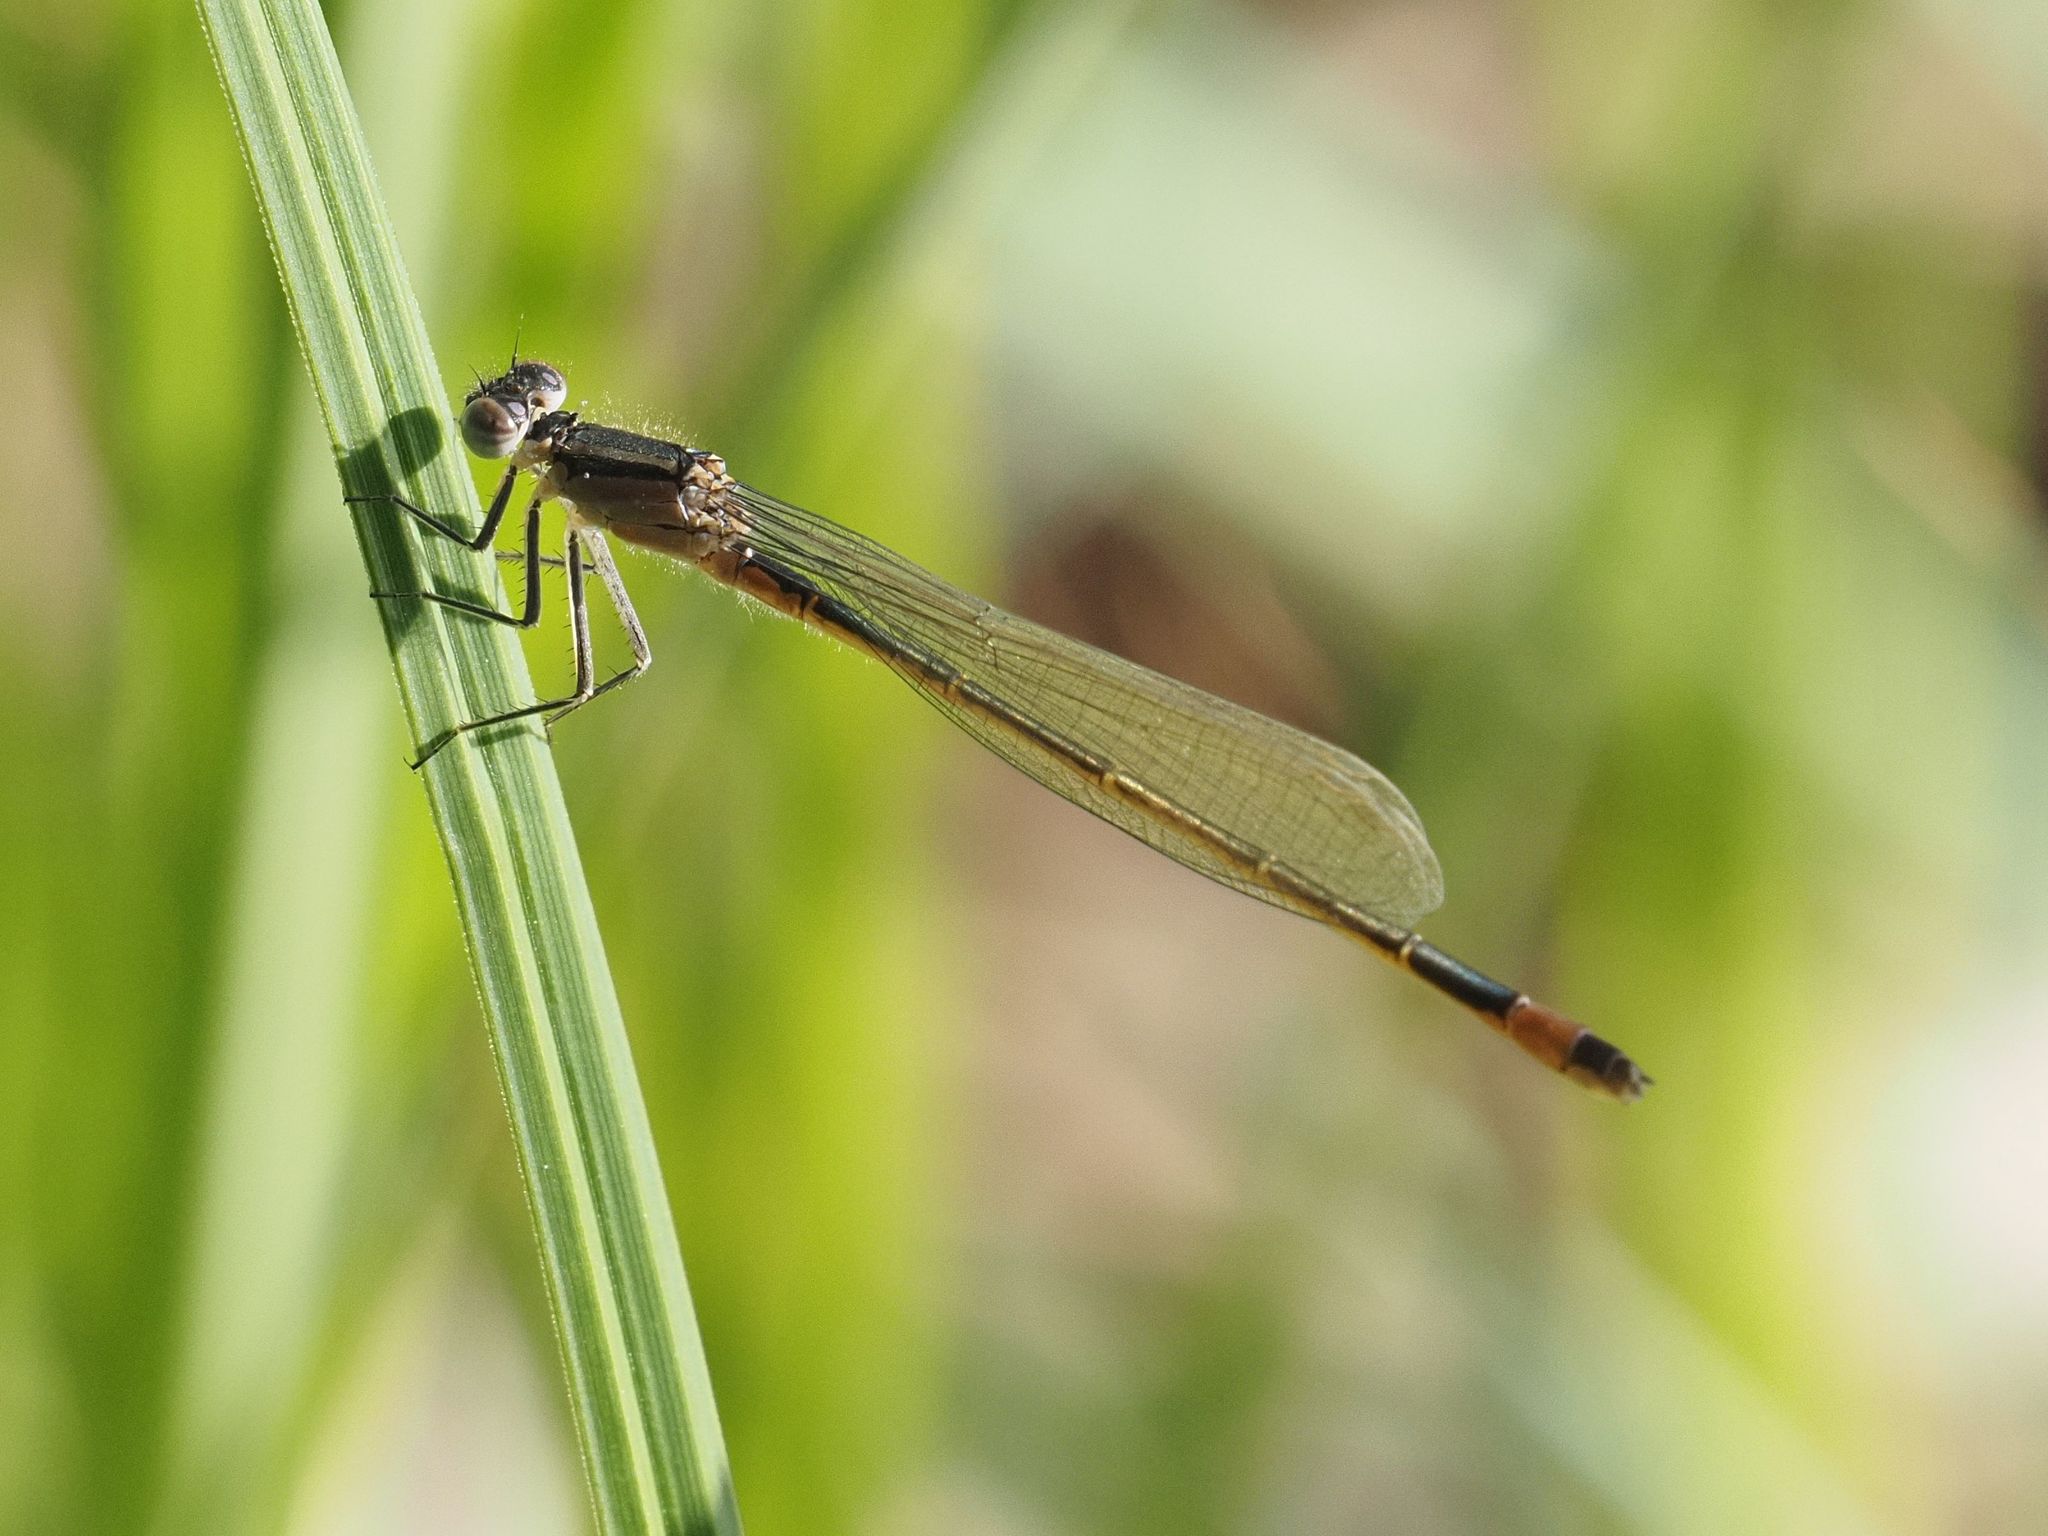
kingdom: Animalia
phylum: Arthropoda
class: Insecta
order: Odonata
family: Coenagrionidae
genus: Ischnura
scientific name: Ischnura elegans
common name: Blue-tailed damselfly
